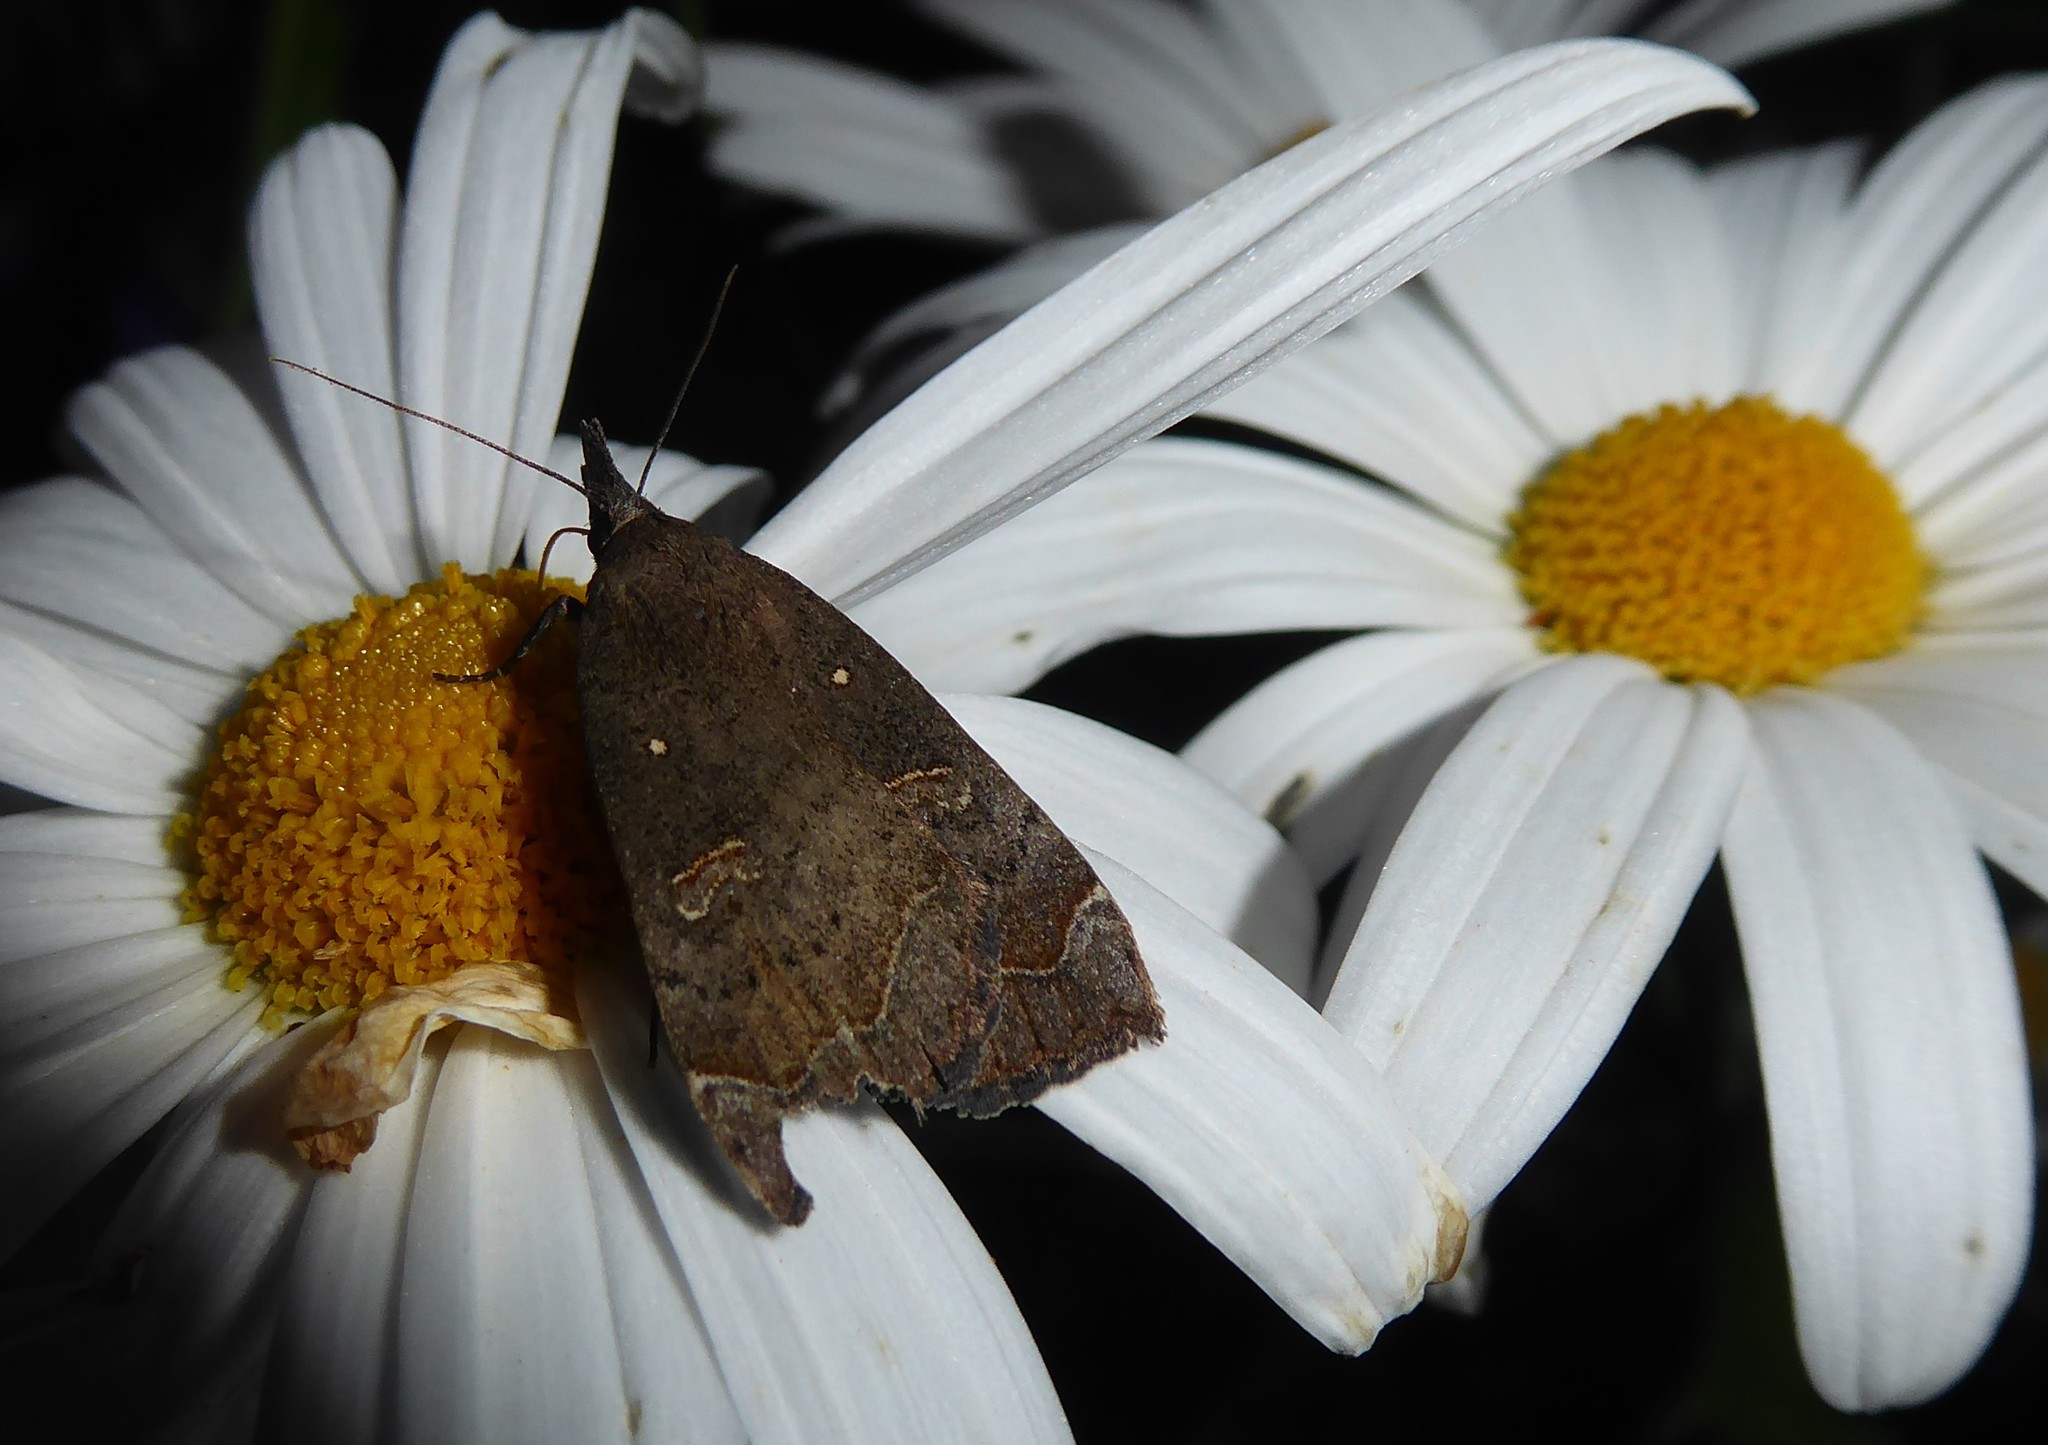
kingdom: Animalia
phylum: Arthropoda
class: Insecta
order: Lepidoptera
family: Erebidae
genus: Rhapsa
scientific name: Rhapsa scotosialis
